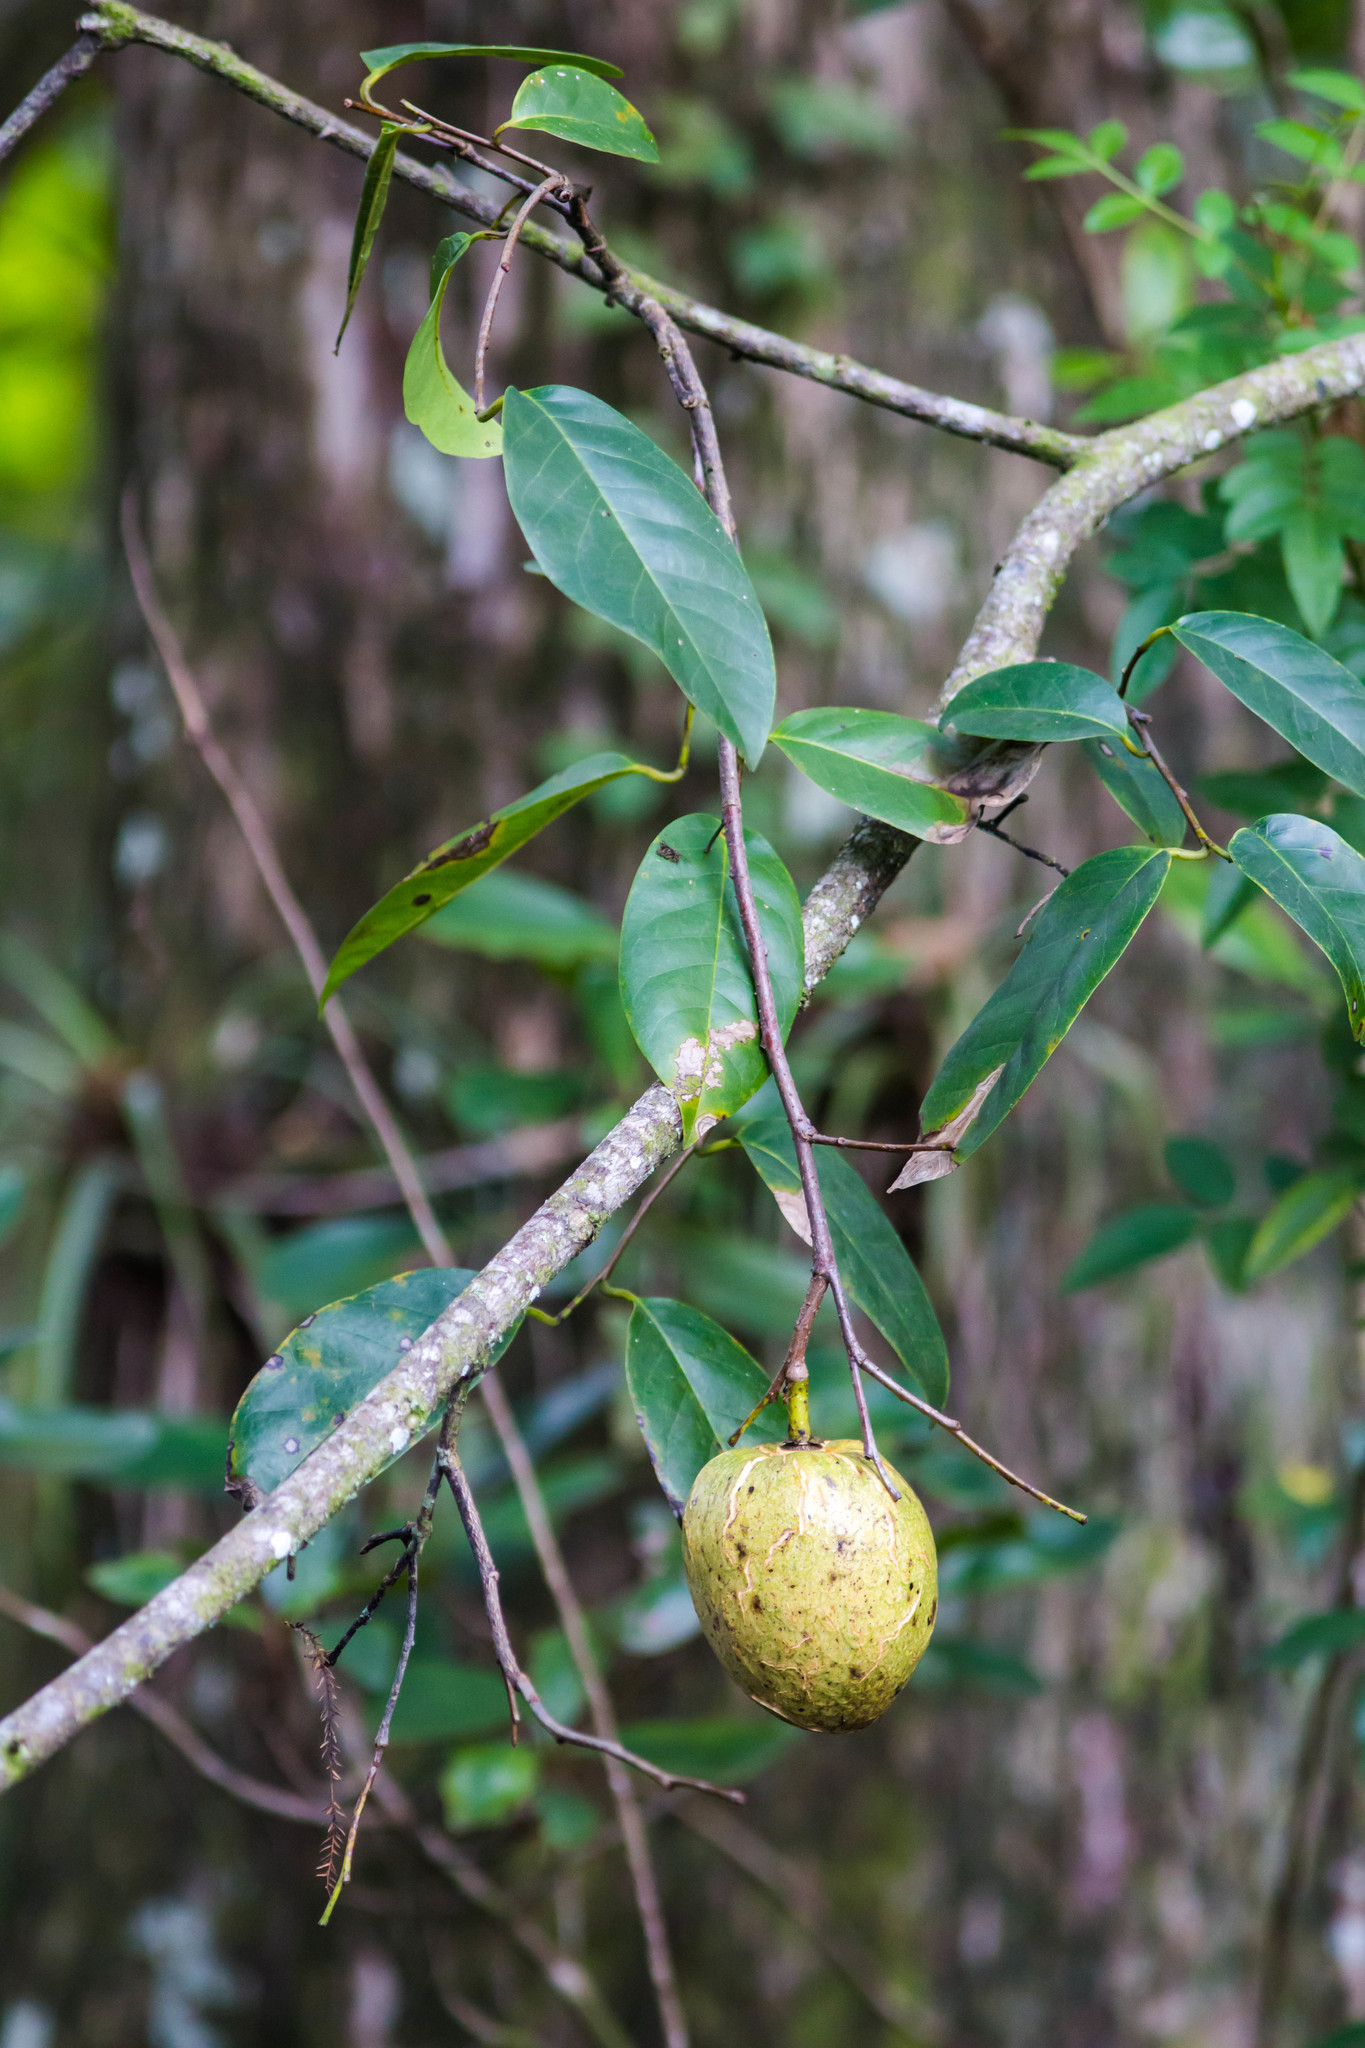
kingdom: Plantae
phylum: Tracheophyta
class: Magnoliopsida
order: Magnoliales
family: Annonaceae
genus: Annona
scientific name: Annona glabra
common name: Monkey apple
